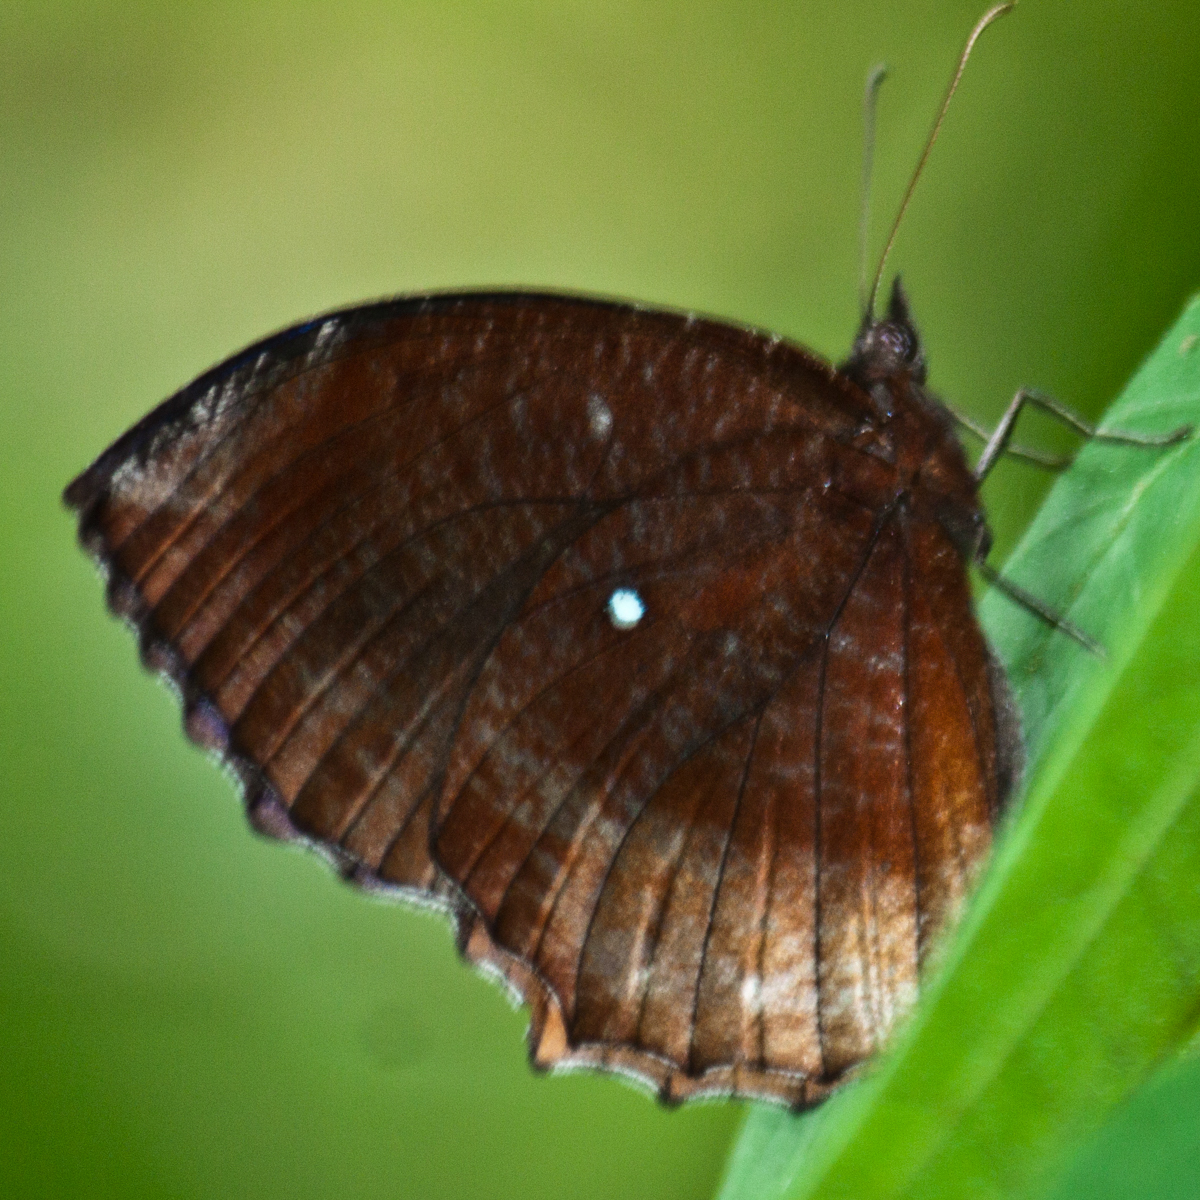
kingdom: Animalia
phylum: Arthropoda
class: Insecta
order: Lepidoptera
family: Nymphalidae
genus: Elymnias
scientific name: Elymnias hypermnestra
